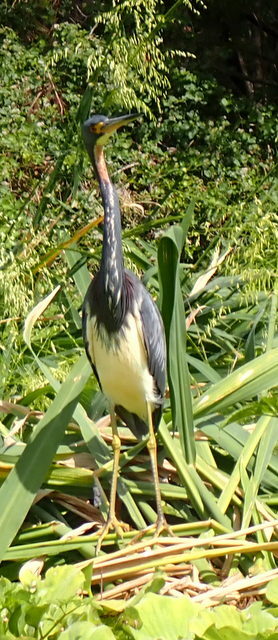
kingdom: Animalia
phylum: Chordata
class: Aves
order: Pelecaniformes
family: Ardeidae
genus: Egretta
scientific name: Egretta tricolor
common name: Tricolored heron
